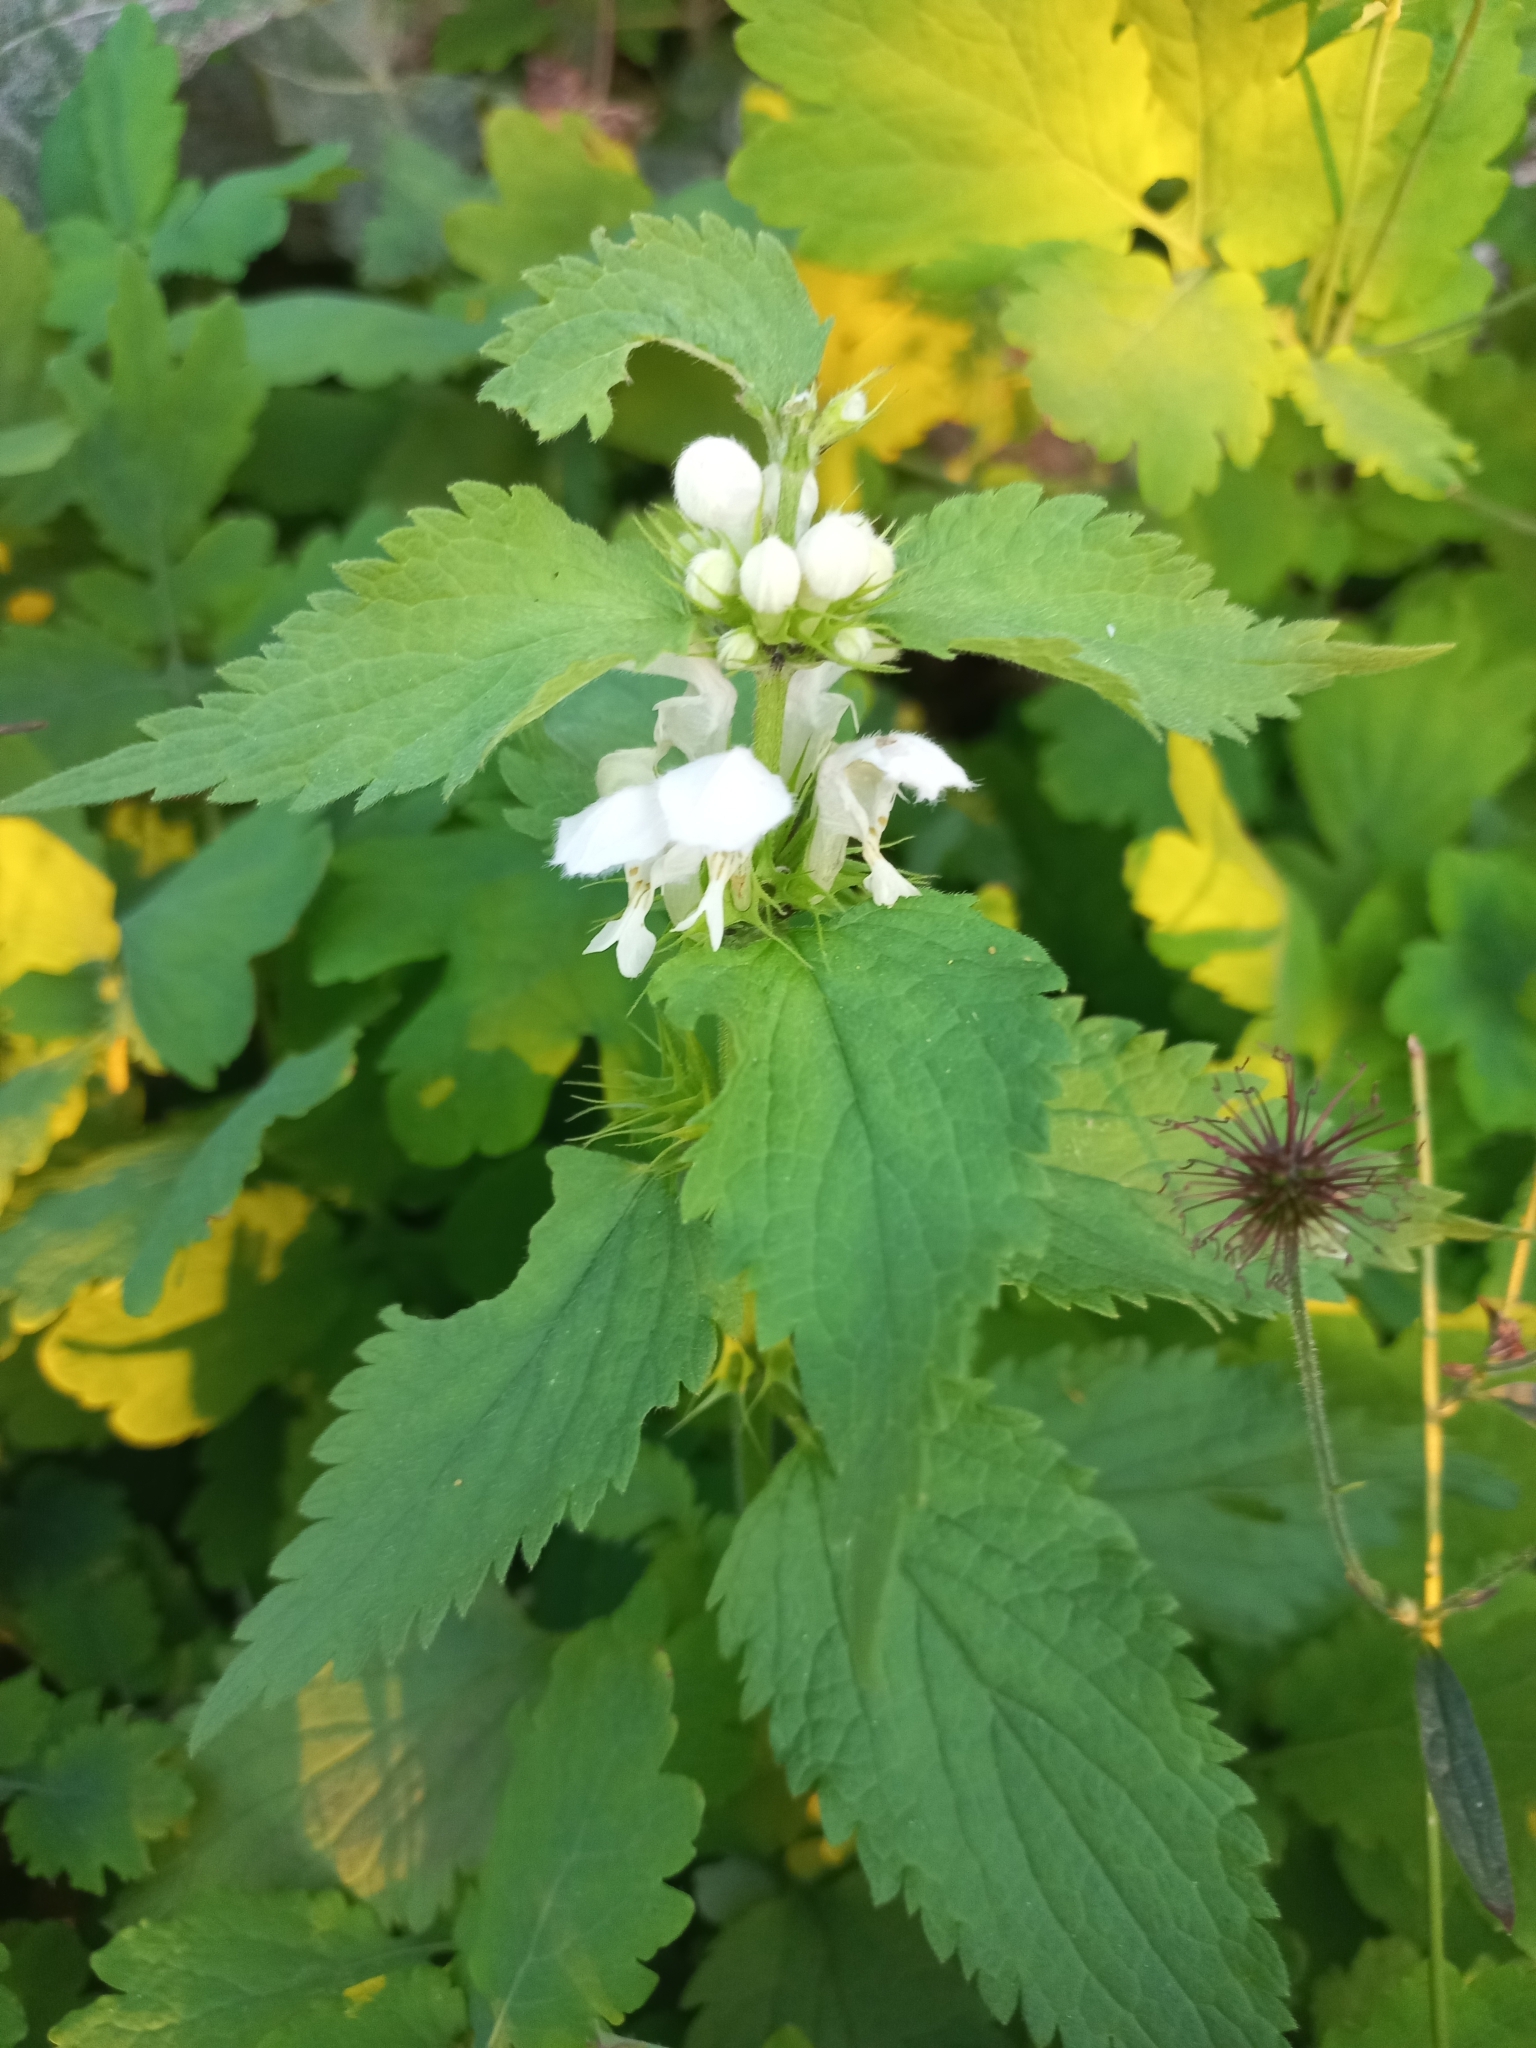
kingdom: Plantae
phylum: Tracheophyta
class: Magnoliopsida
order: Lamiales
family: Lamiaceae
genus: Lamium
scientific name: Lamium album
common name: White dead-nettle
